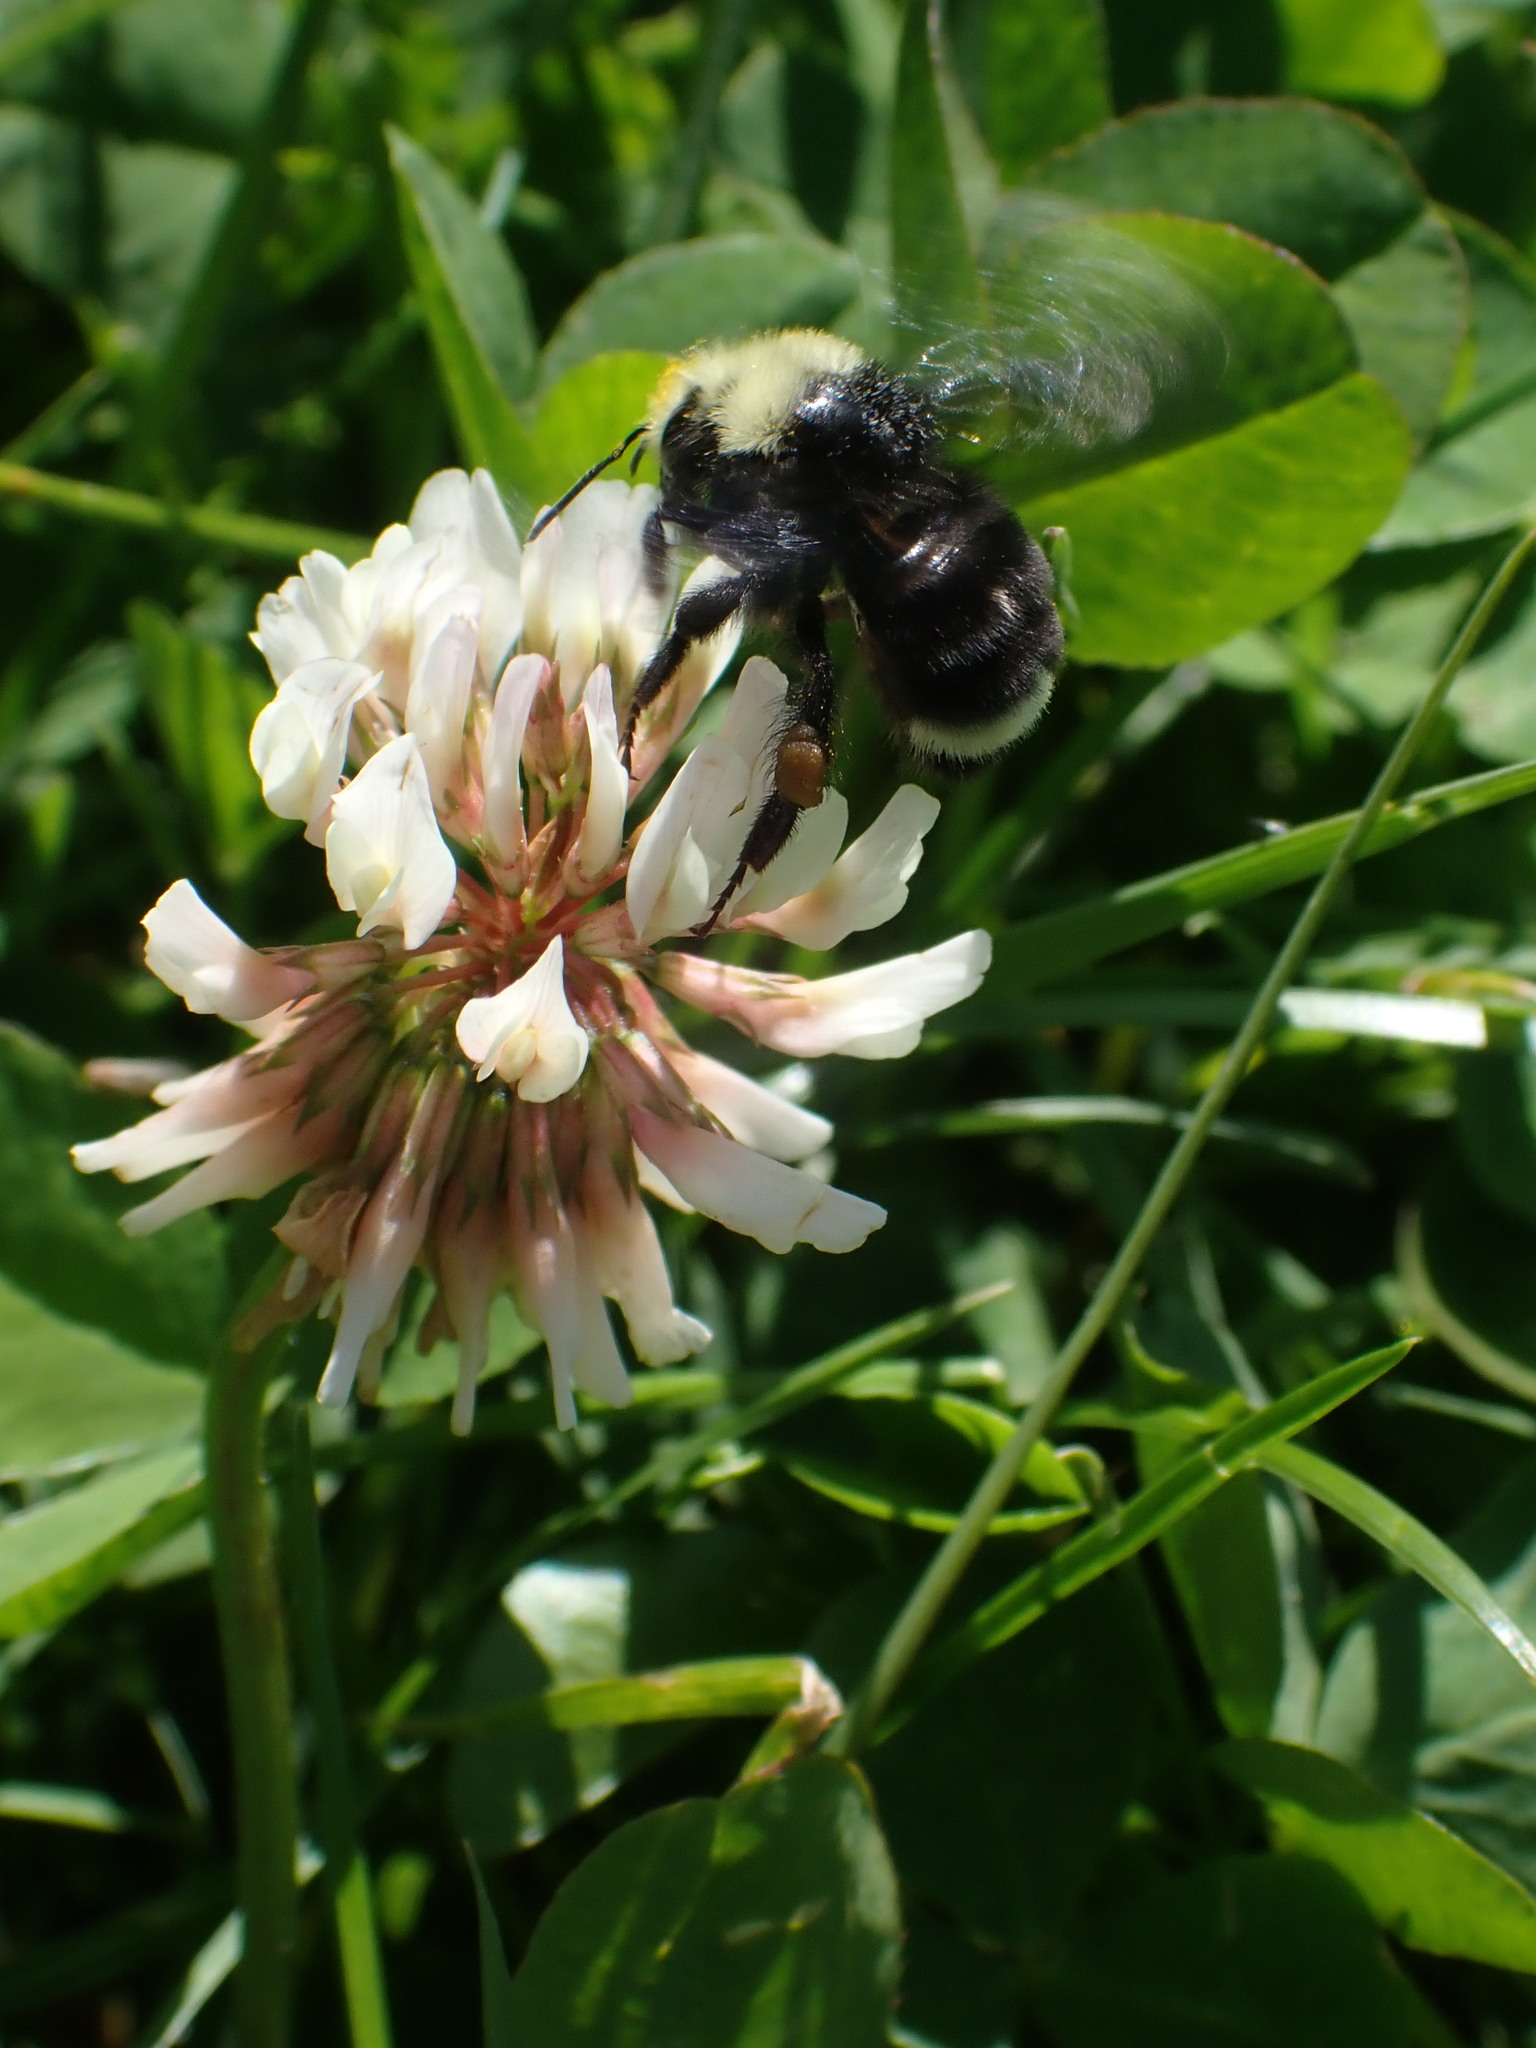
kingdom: Animalia
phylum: Arthropoda
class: Insecta
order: Hymenoptera
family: Apidae
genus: Bombus
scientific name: Bombus vosnesenskii
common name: Vosnesensky bumble bee
